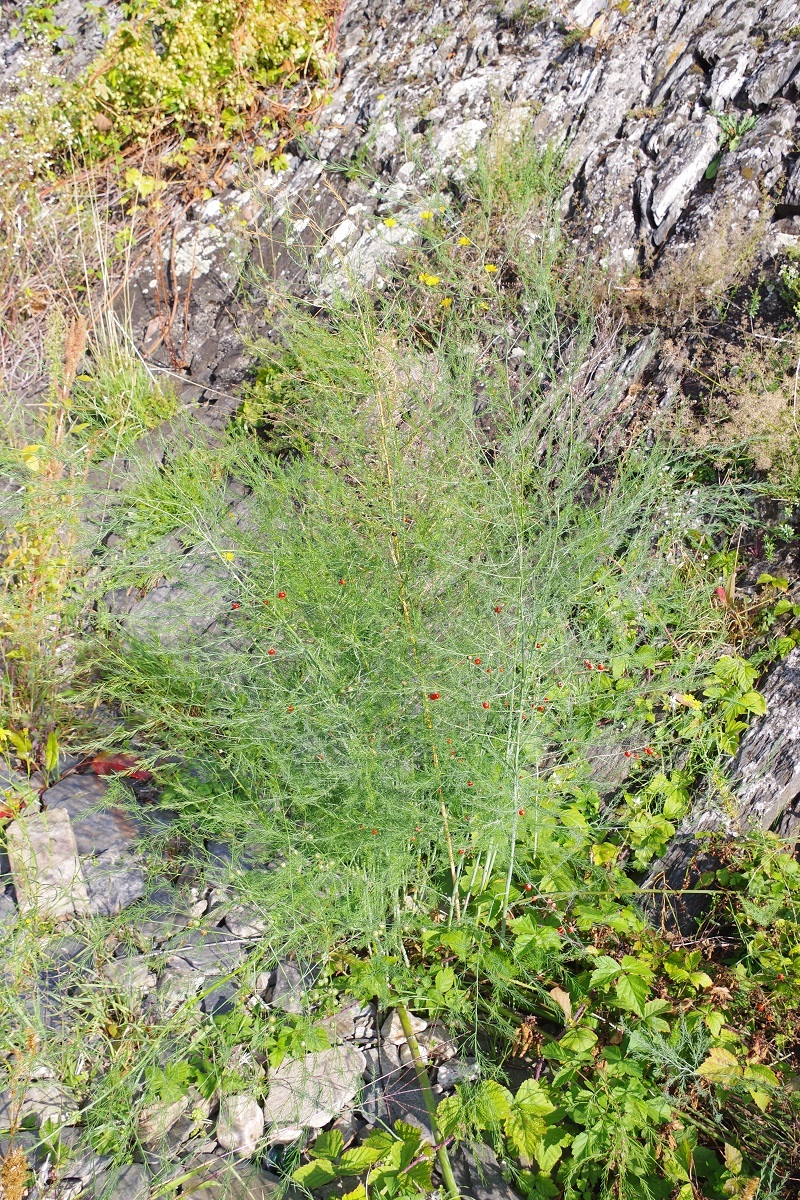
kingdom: Plantae
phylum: Tracheophyta
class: Liliopsida
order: Asparagales
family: Asparagaceae
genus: Asparagus
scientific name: Asparagus officinalis
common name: Garden asparagus
